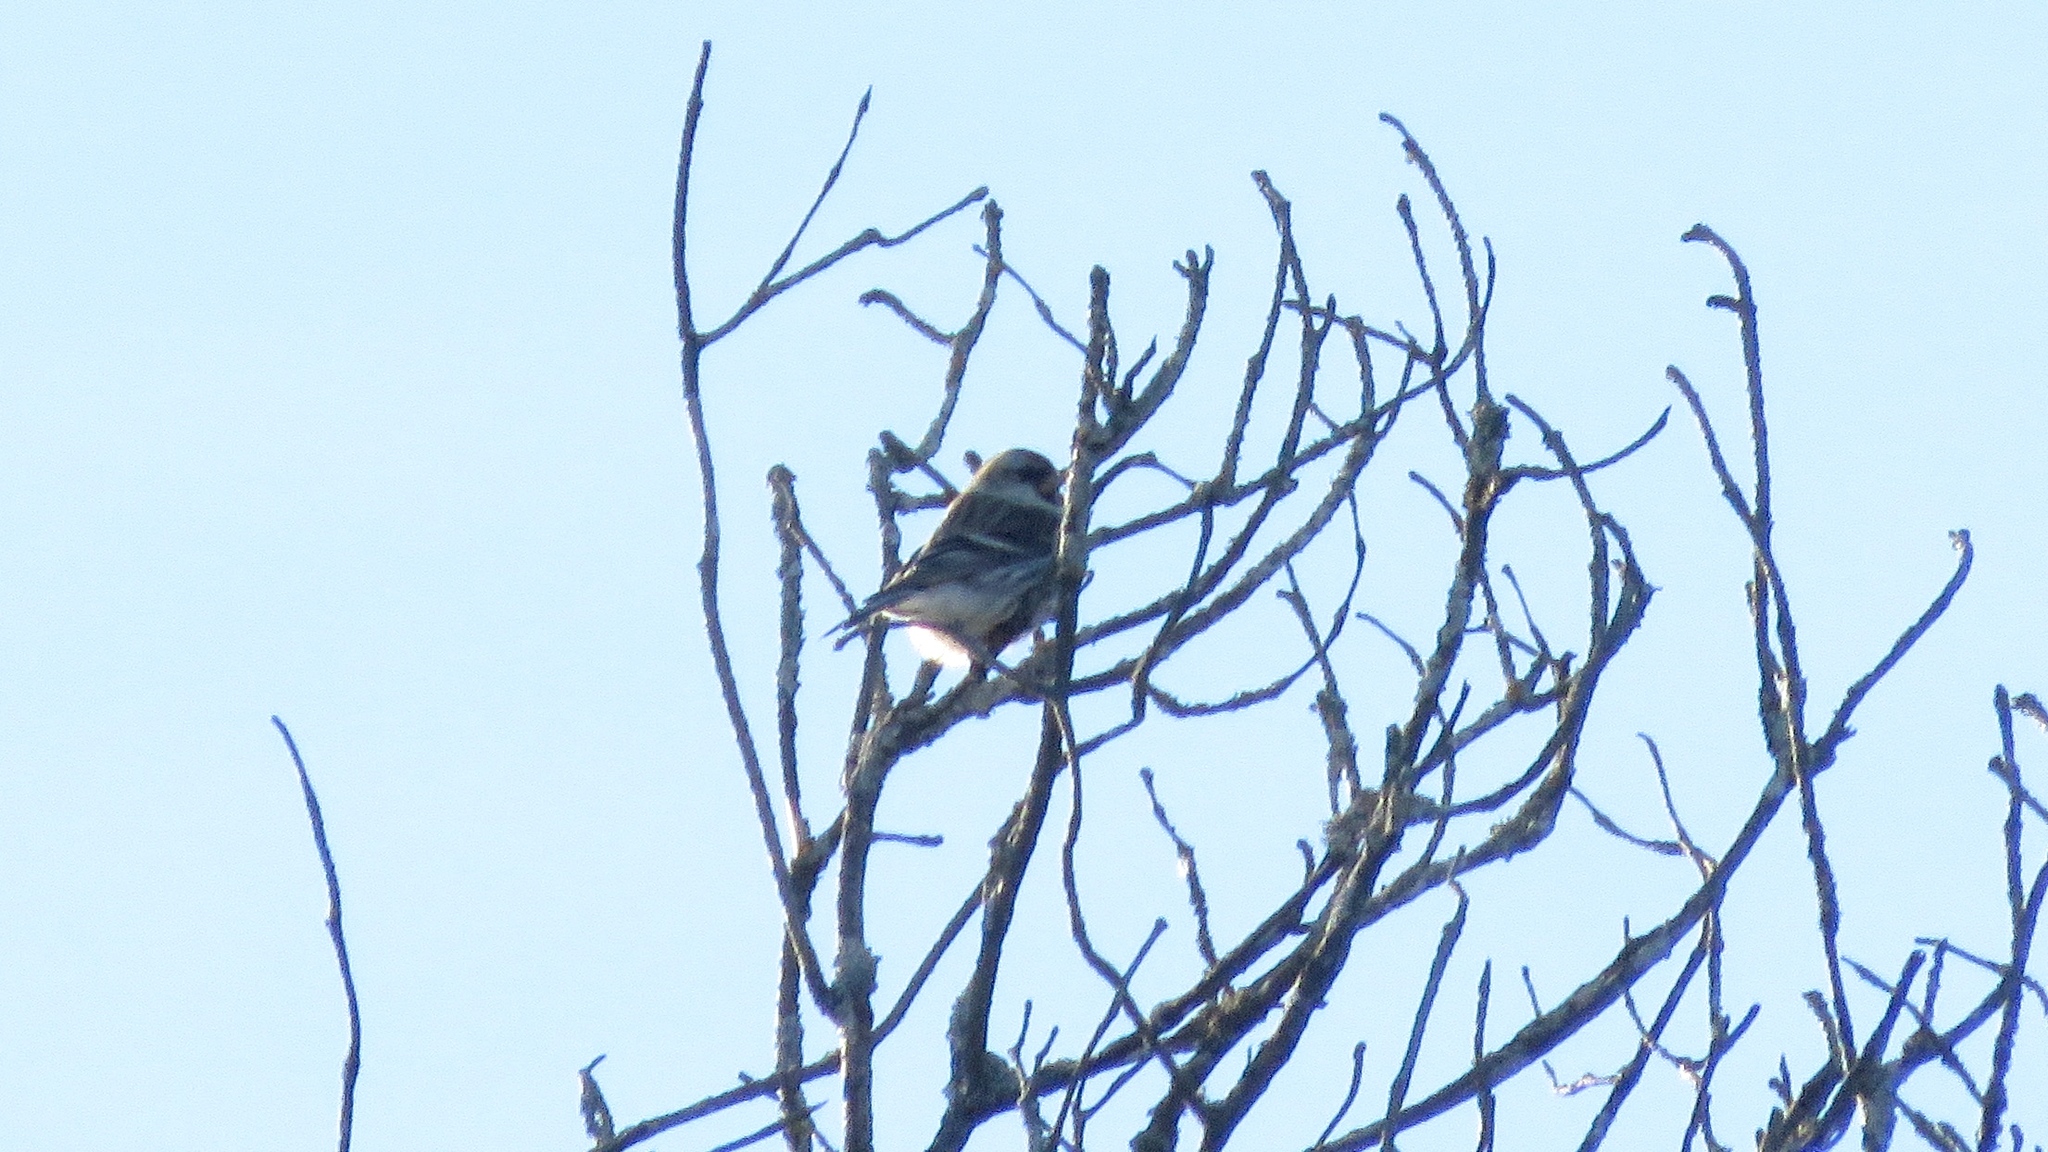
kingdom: Animalia
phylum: Chordata
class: Aves
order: Passeriformes
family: Fringillidae
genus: Acanthis
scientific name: Acanthis flammea
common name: Common redpoll
